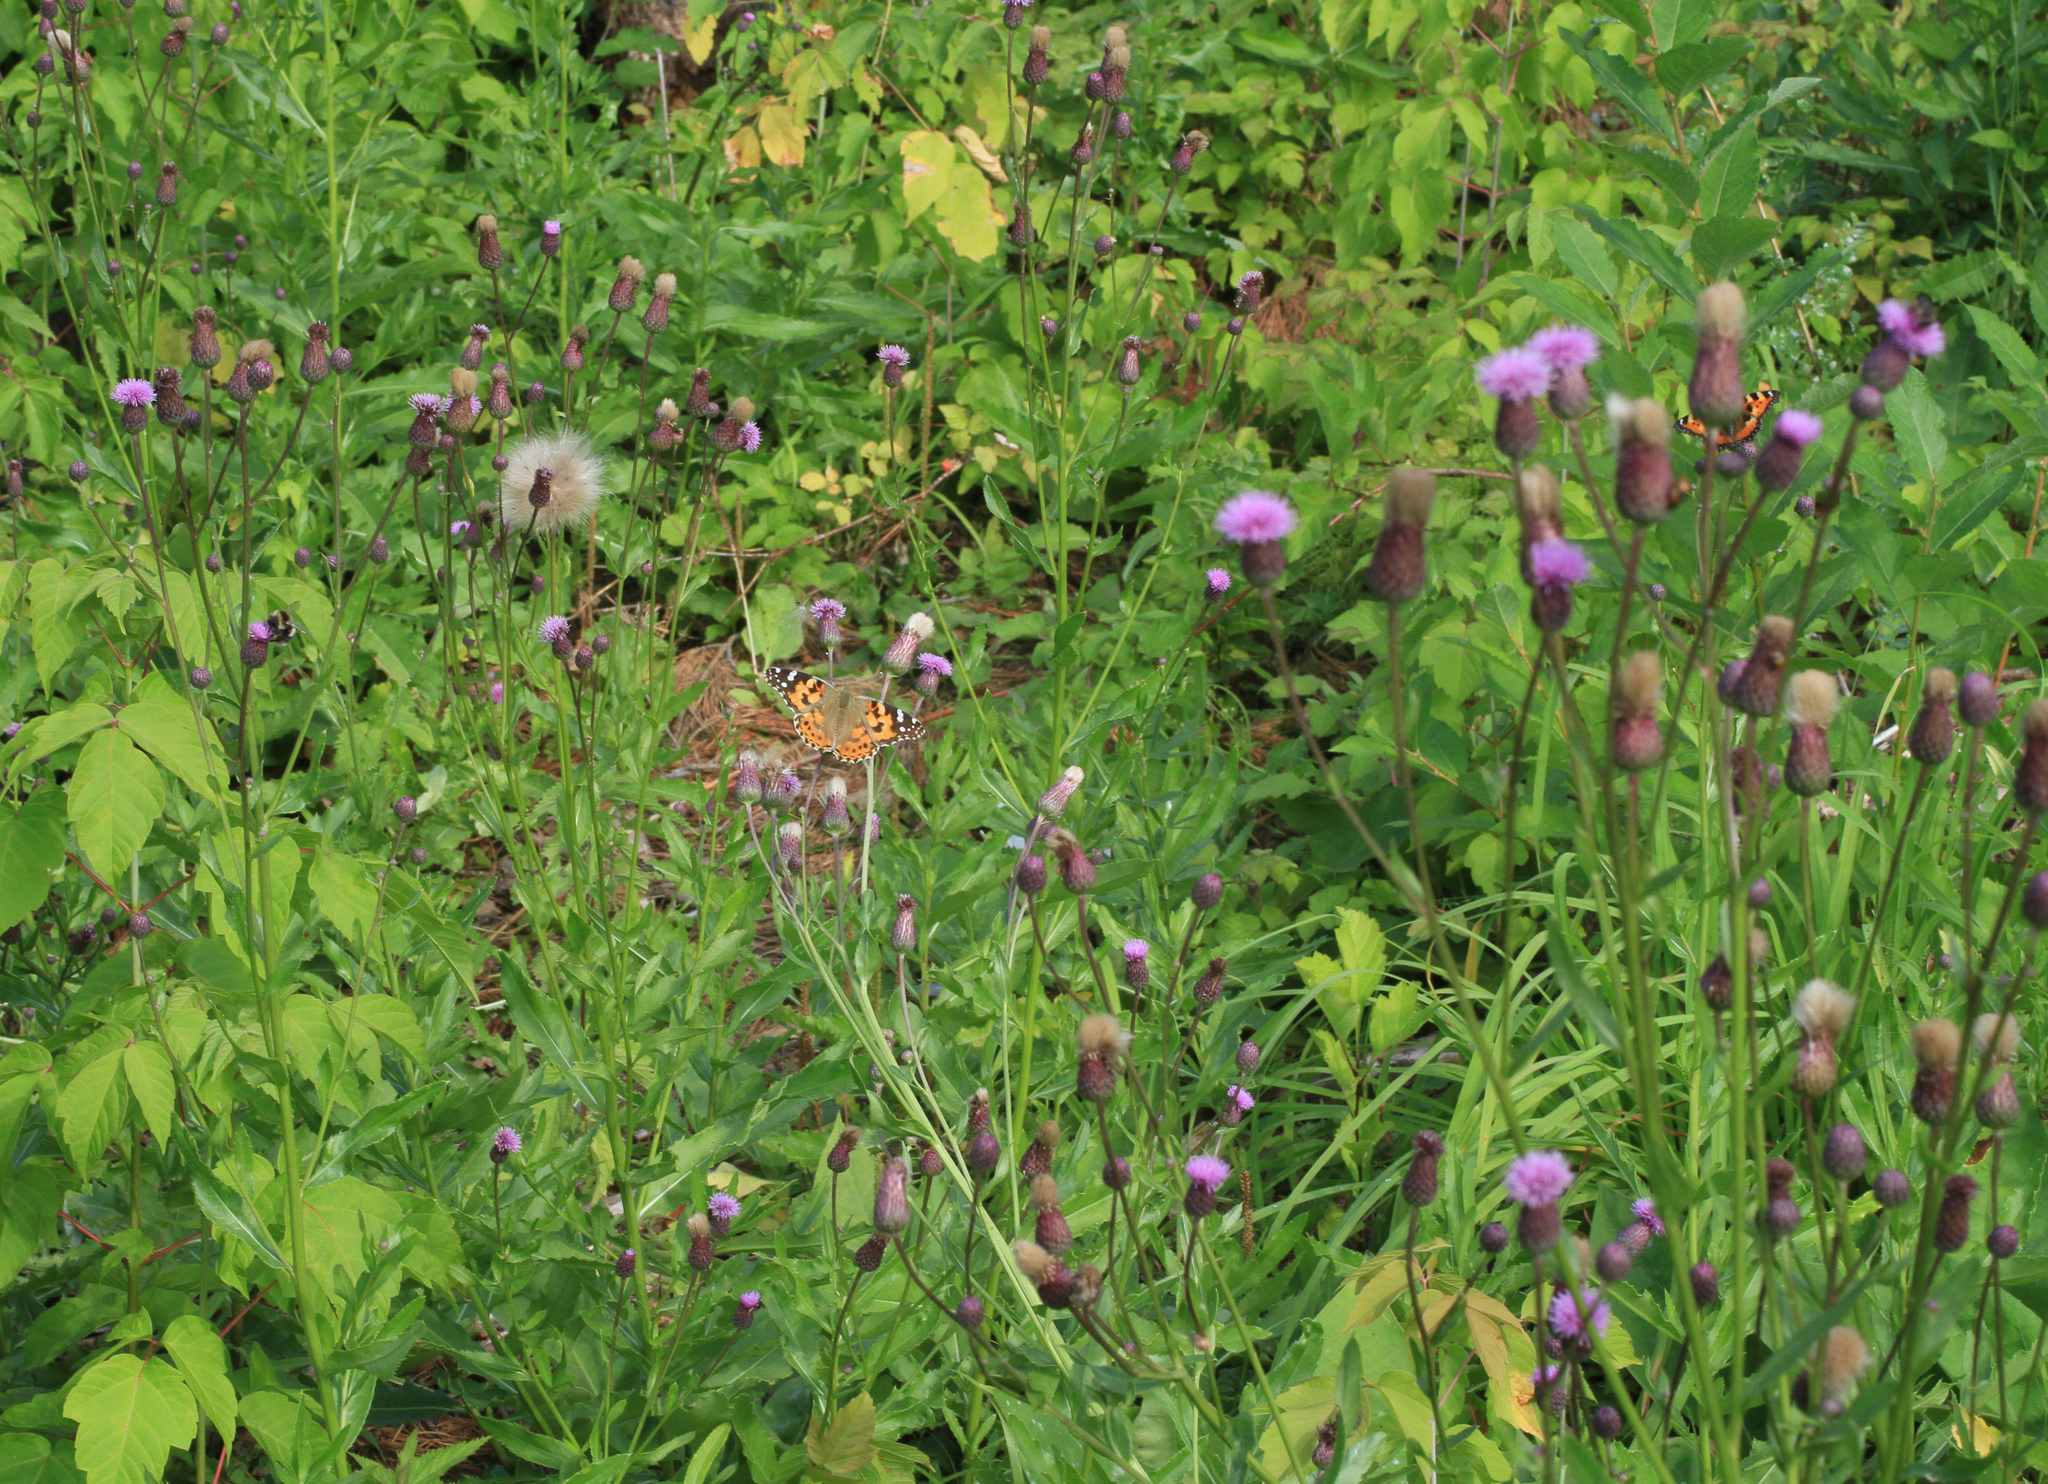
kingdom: Animalia
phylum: Arthropoda
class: Insecta
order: Lepidoptera
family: Nymphalidae
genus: Vanessa
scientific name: Vanessa cardui
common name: Painted lady
